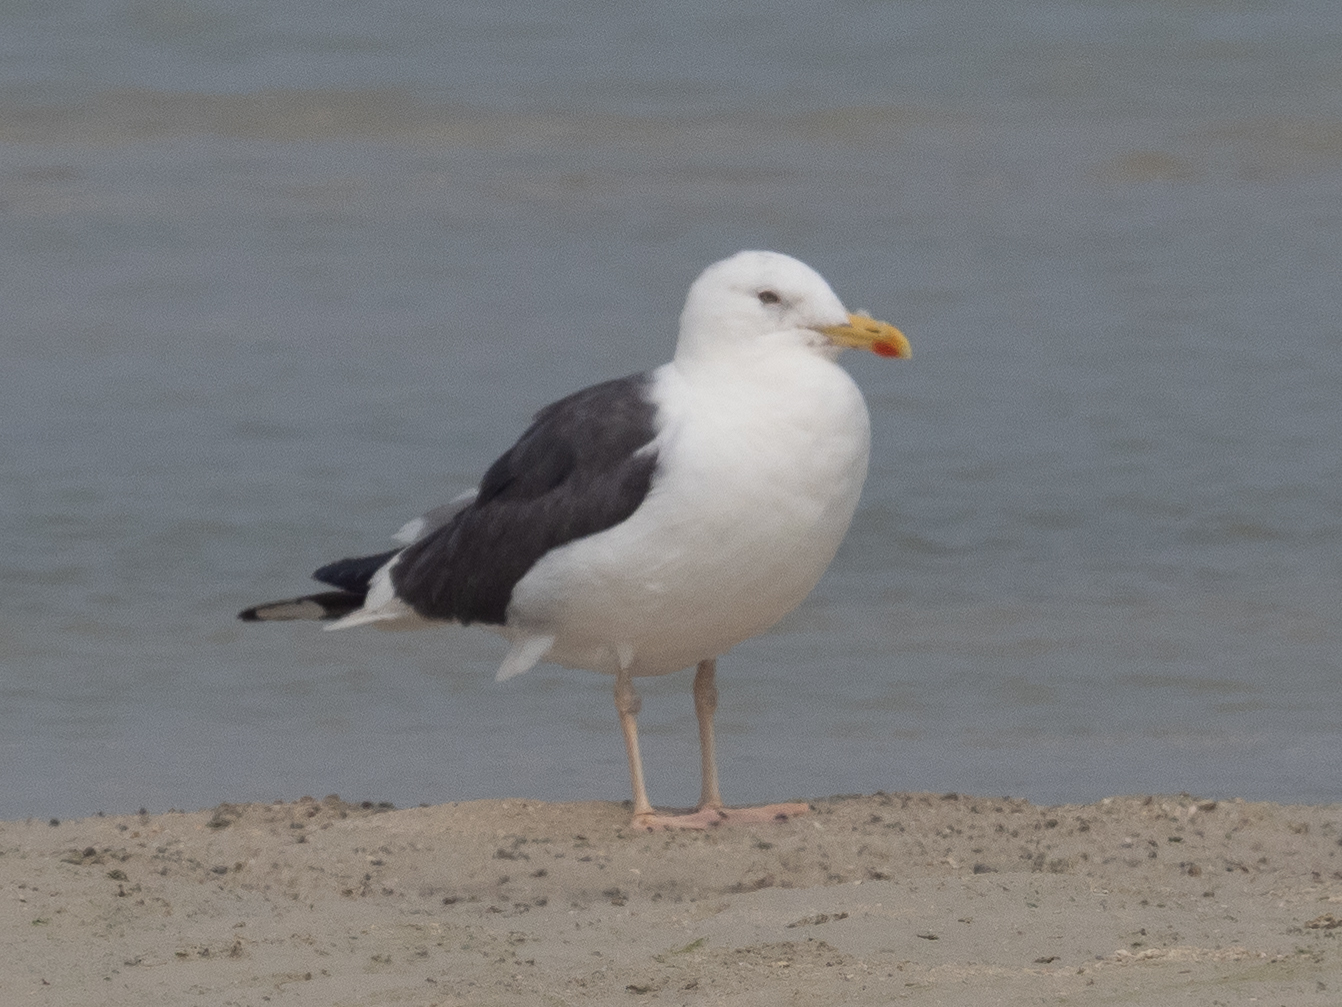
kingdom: Animalia
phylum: Chordata
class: Aves
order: Charadriiformes
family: Laridae
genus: Larus
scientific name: Larus fuscus
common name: Lesser black-backed gull
